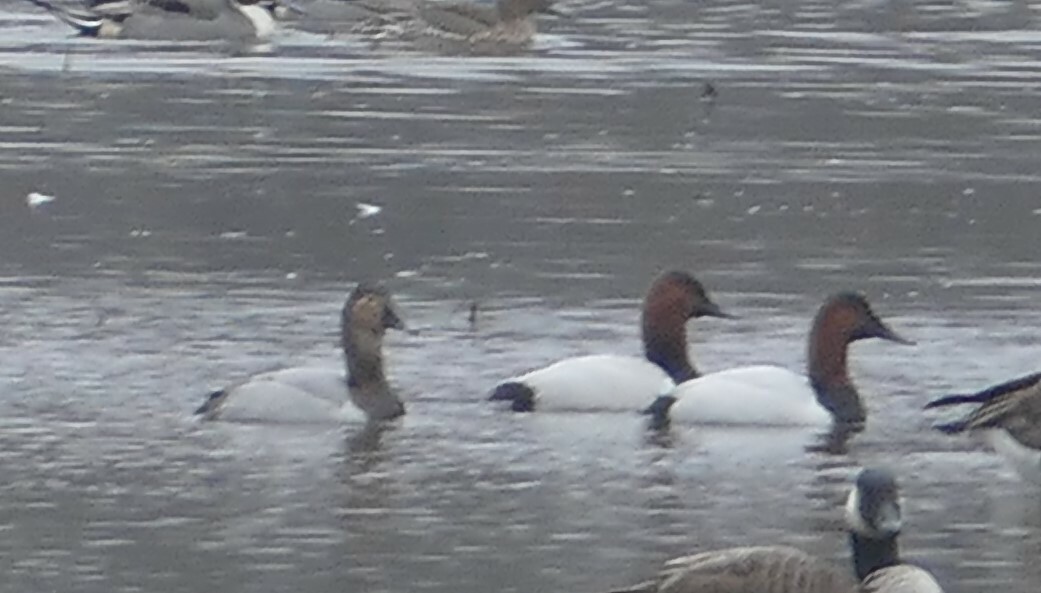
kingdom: Animalia
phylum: Chordata
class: Aves
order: Anseriformes
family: Anatidae
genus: Aythya
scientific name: Aythya valisineria
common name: Canvasback
